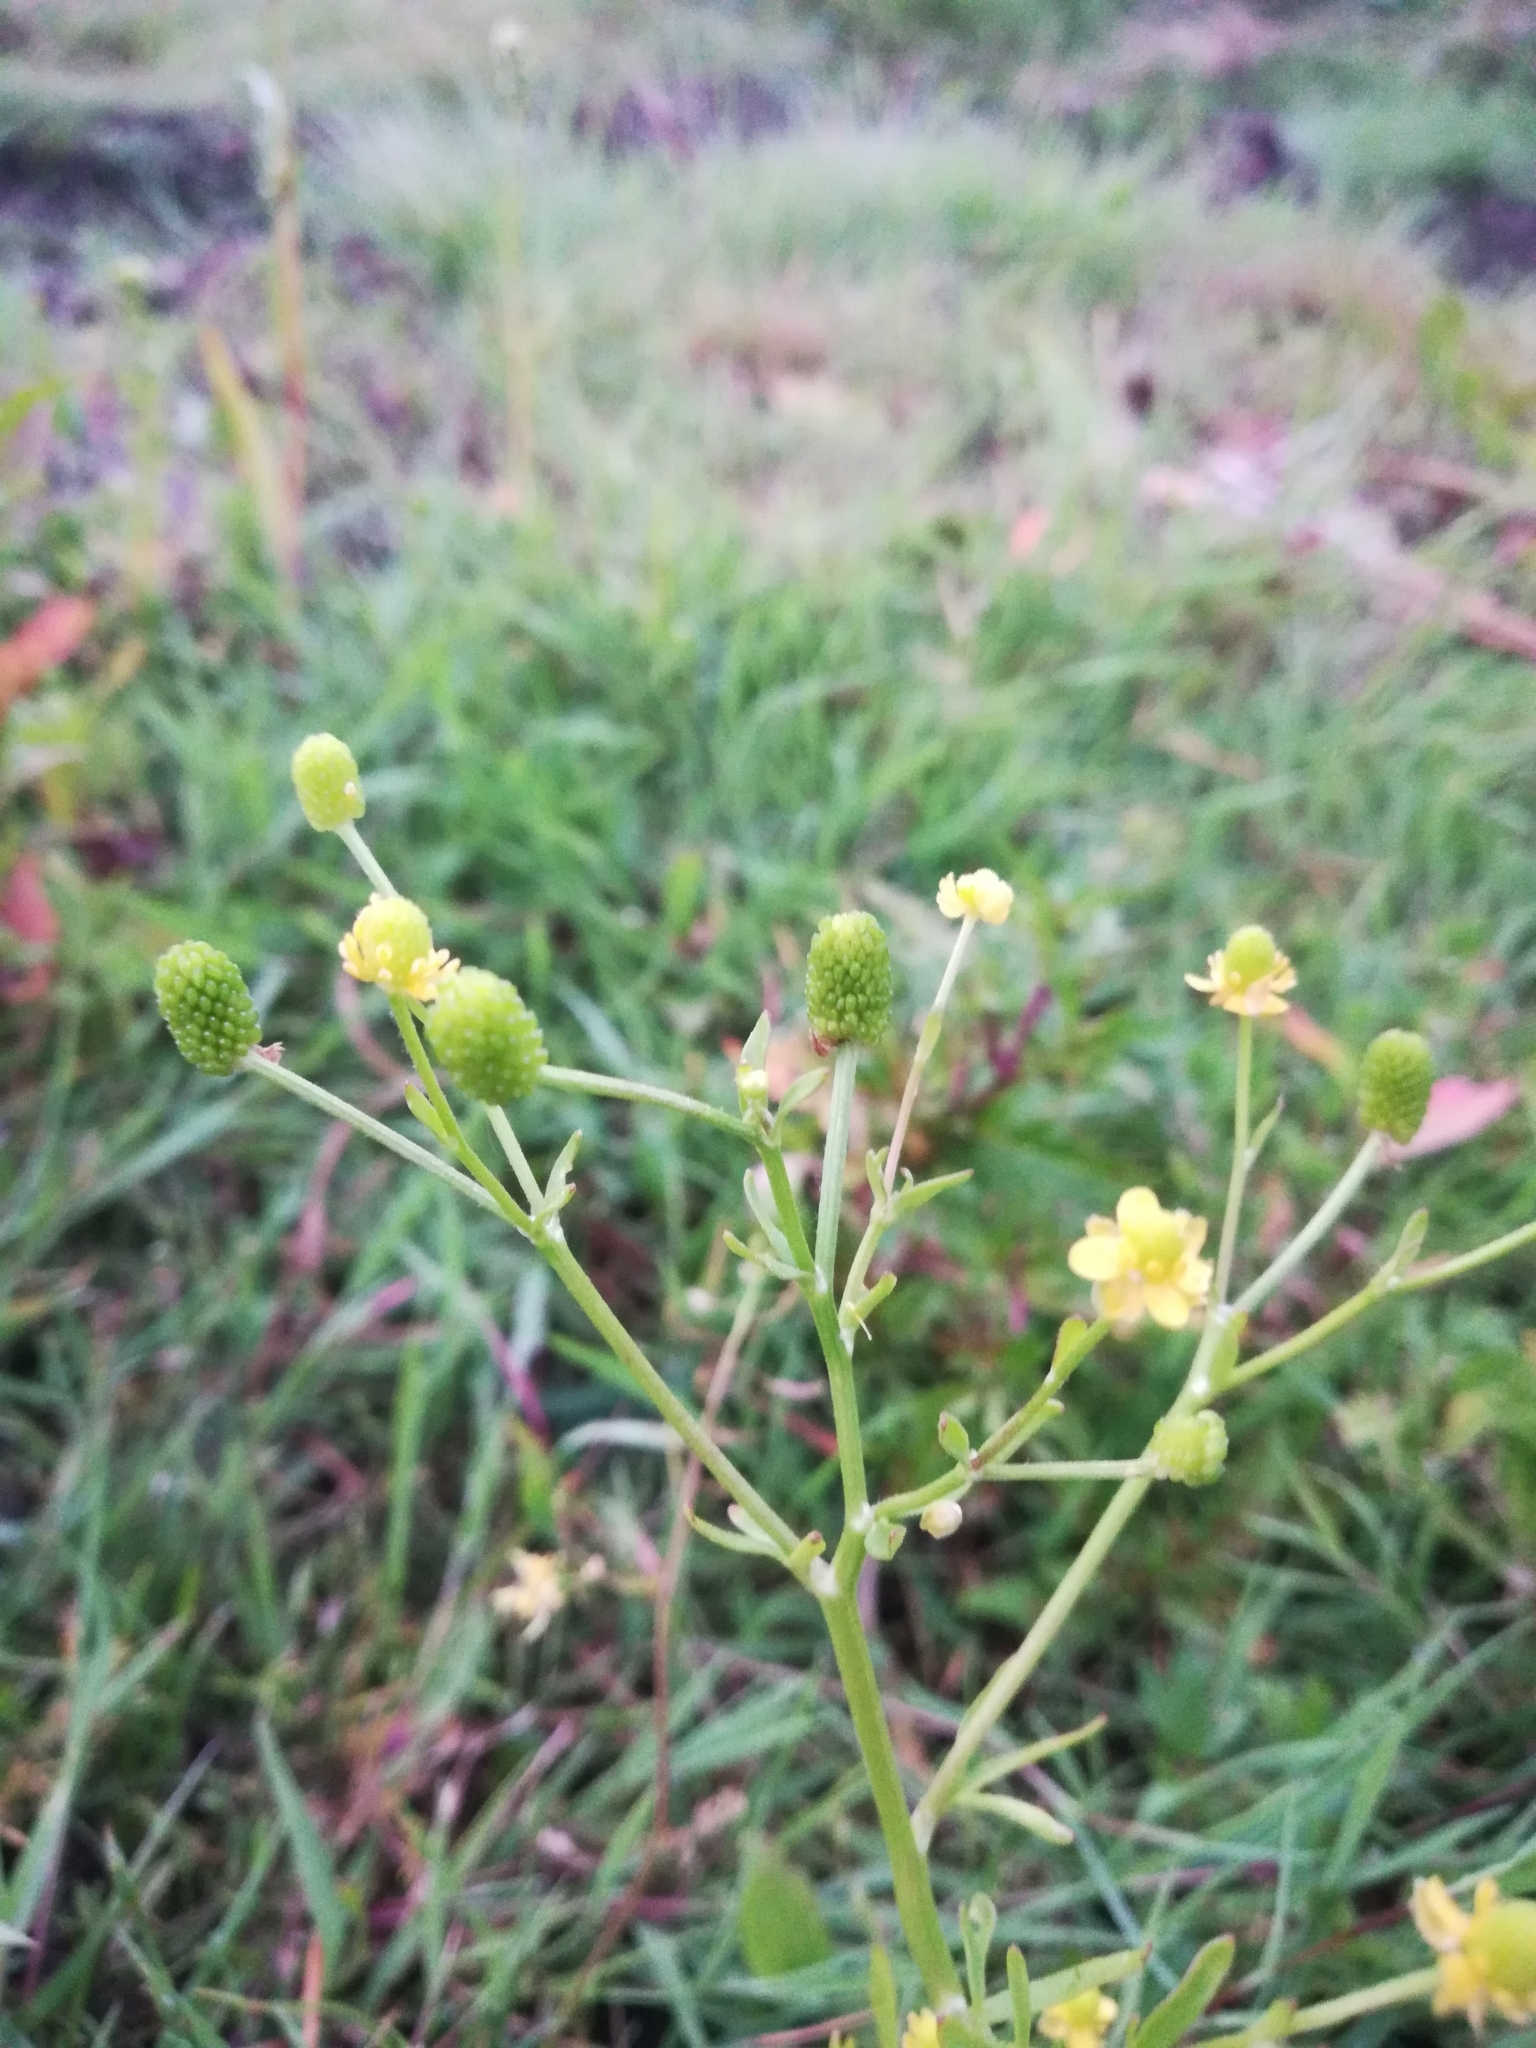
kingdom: Plantae
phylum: Tracheophyta
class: Magnoliopsida
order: Ranunculales
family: Ranunculaceae
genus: Ranunculus
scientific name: Ranunculus sceleratus
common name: Celery-leaved buttercup
